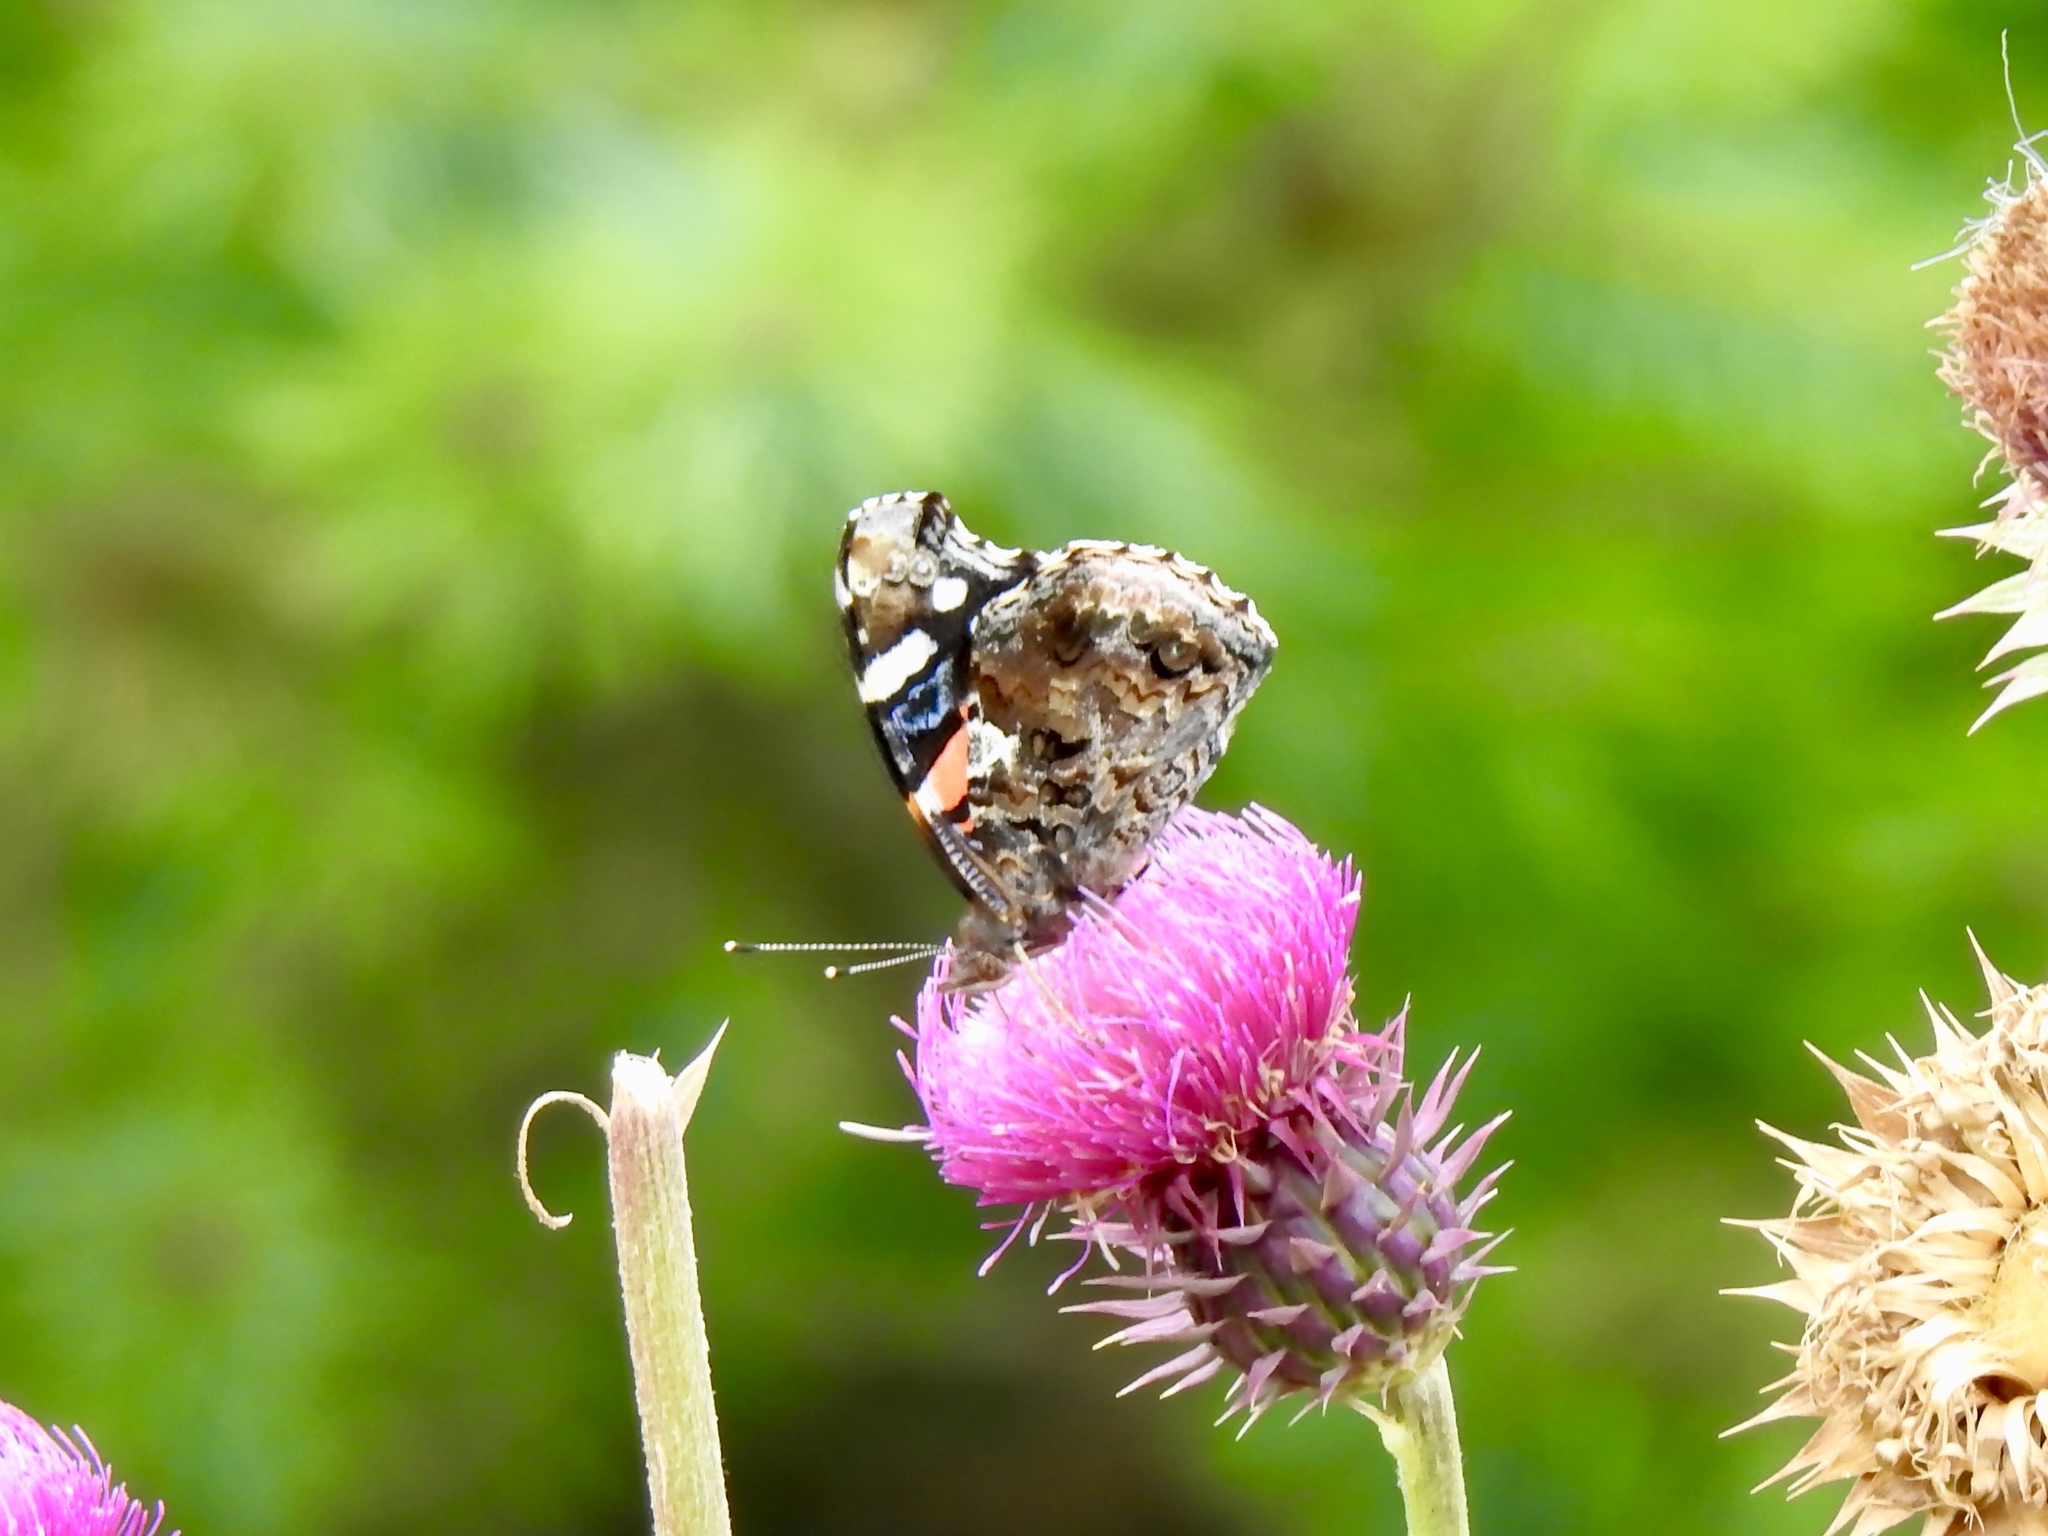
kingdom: Animalia
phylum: Arthropoda
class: Insecta
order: Lepidoptera
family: Nymphalidae
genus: Vanessa
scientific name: Vanessa atalanta
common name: Red admiral
